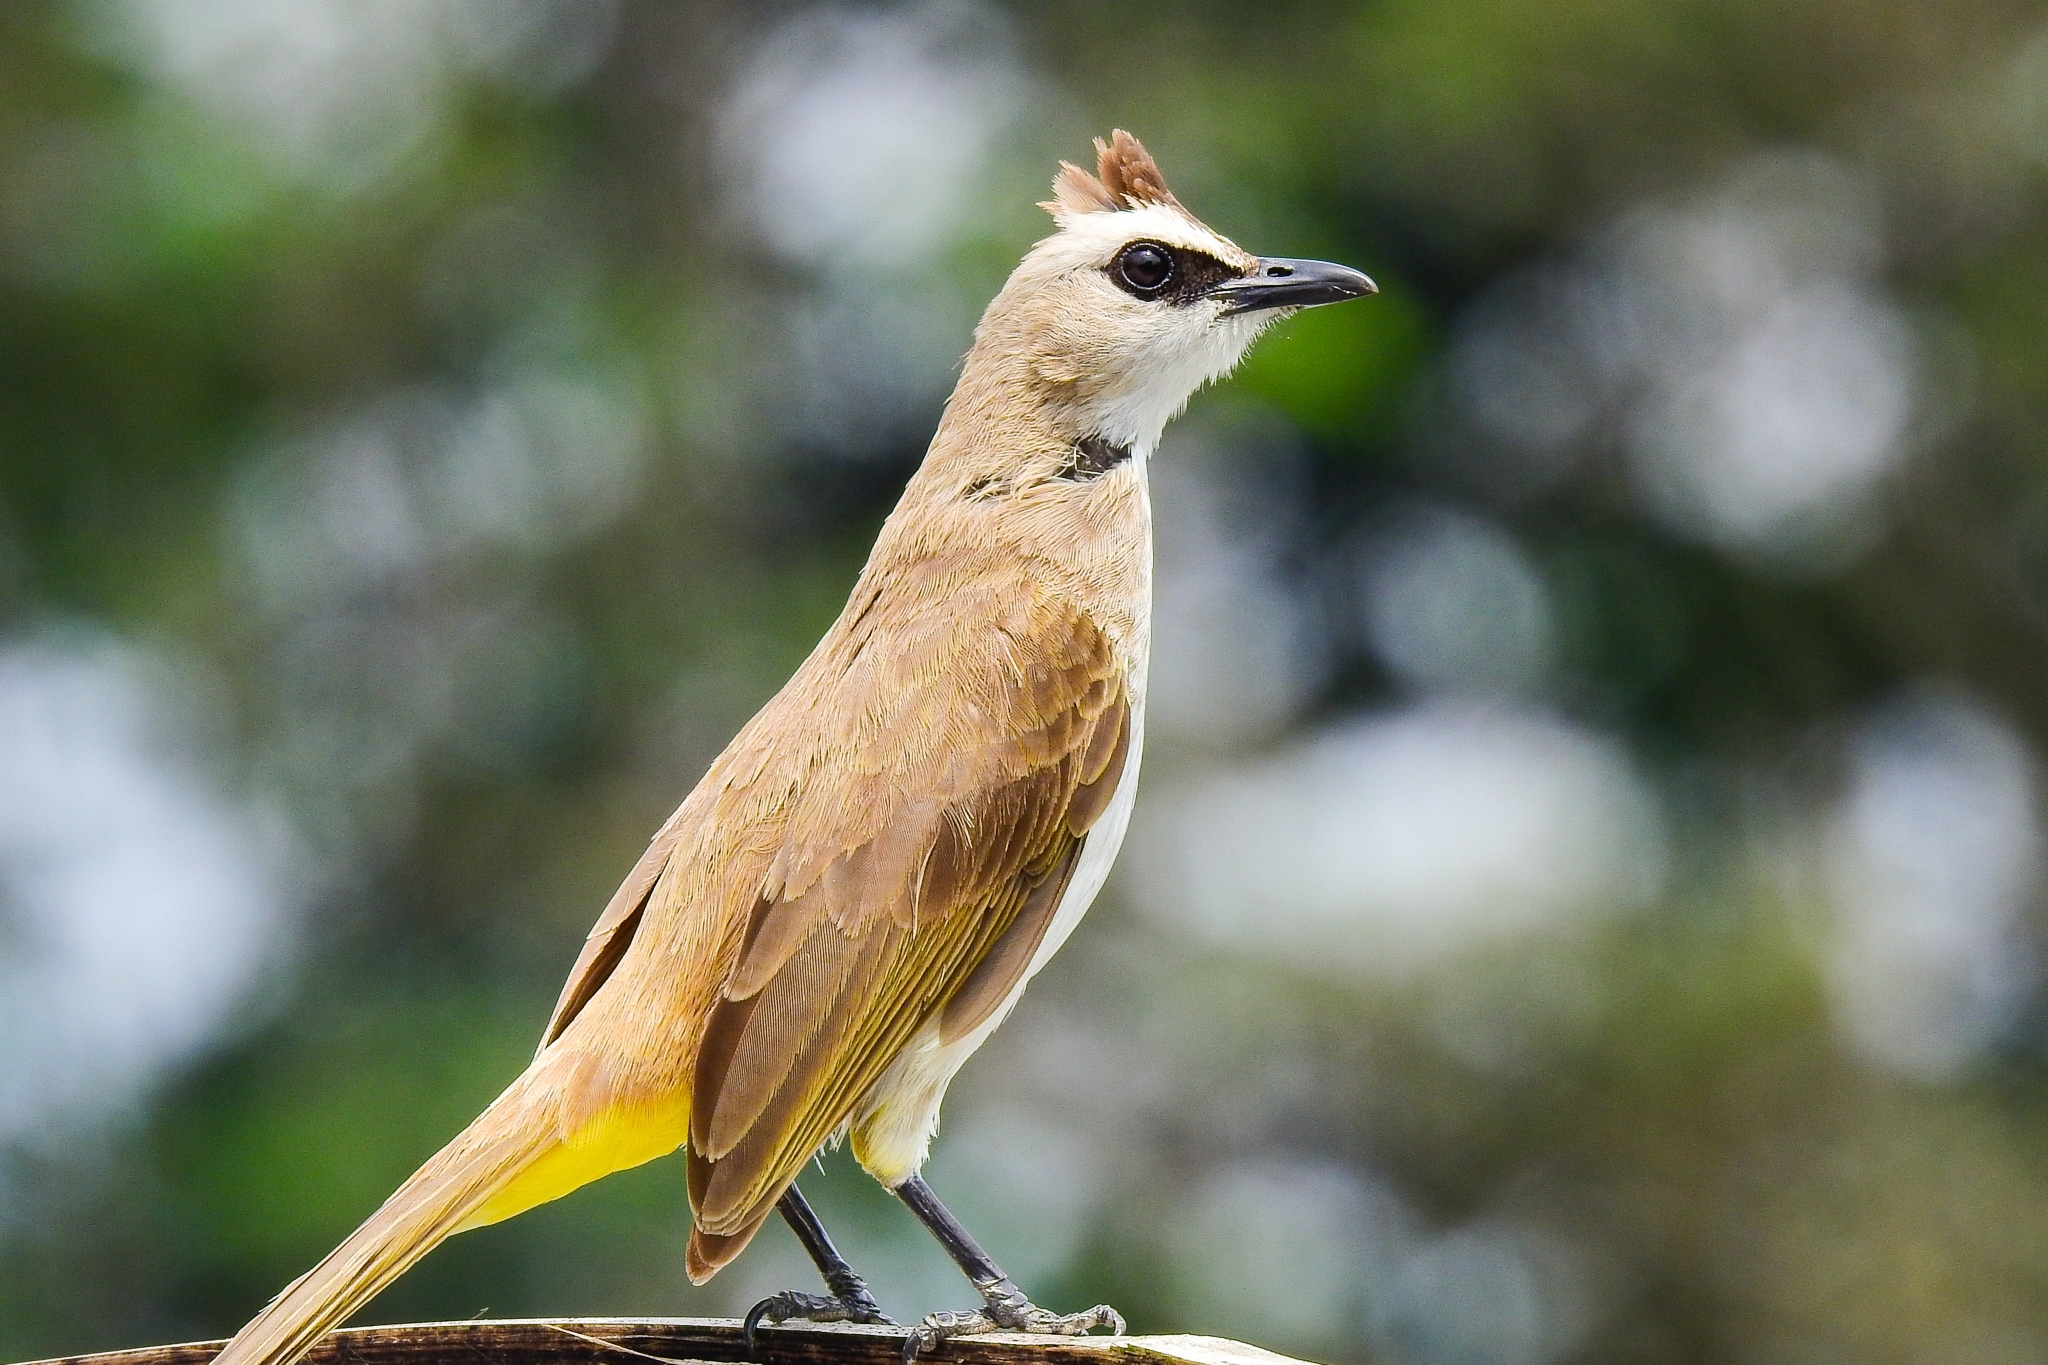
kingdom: Animalia
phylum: Chordata
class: Aves
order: Passeriformes
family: Pycnonotidae
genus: Pycnonotus
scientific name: Pycnonotus goiavier
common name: Yellow-vented bulbul
